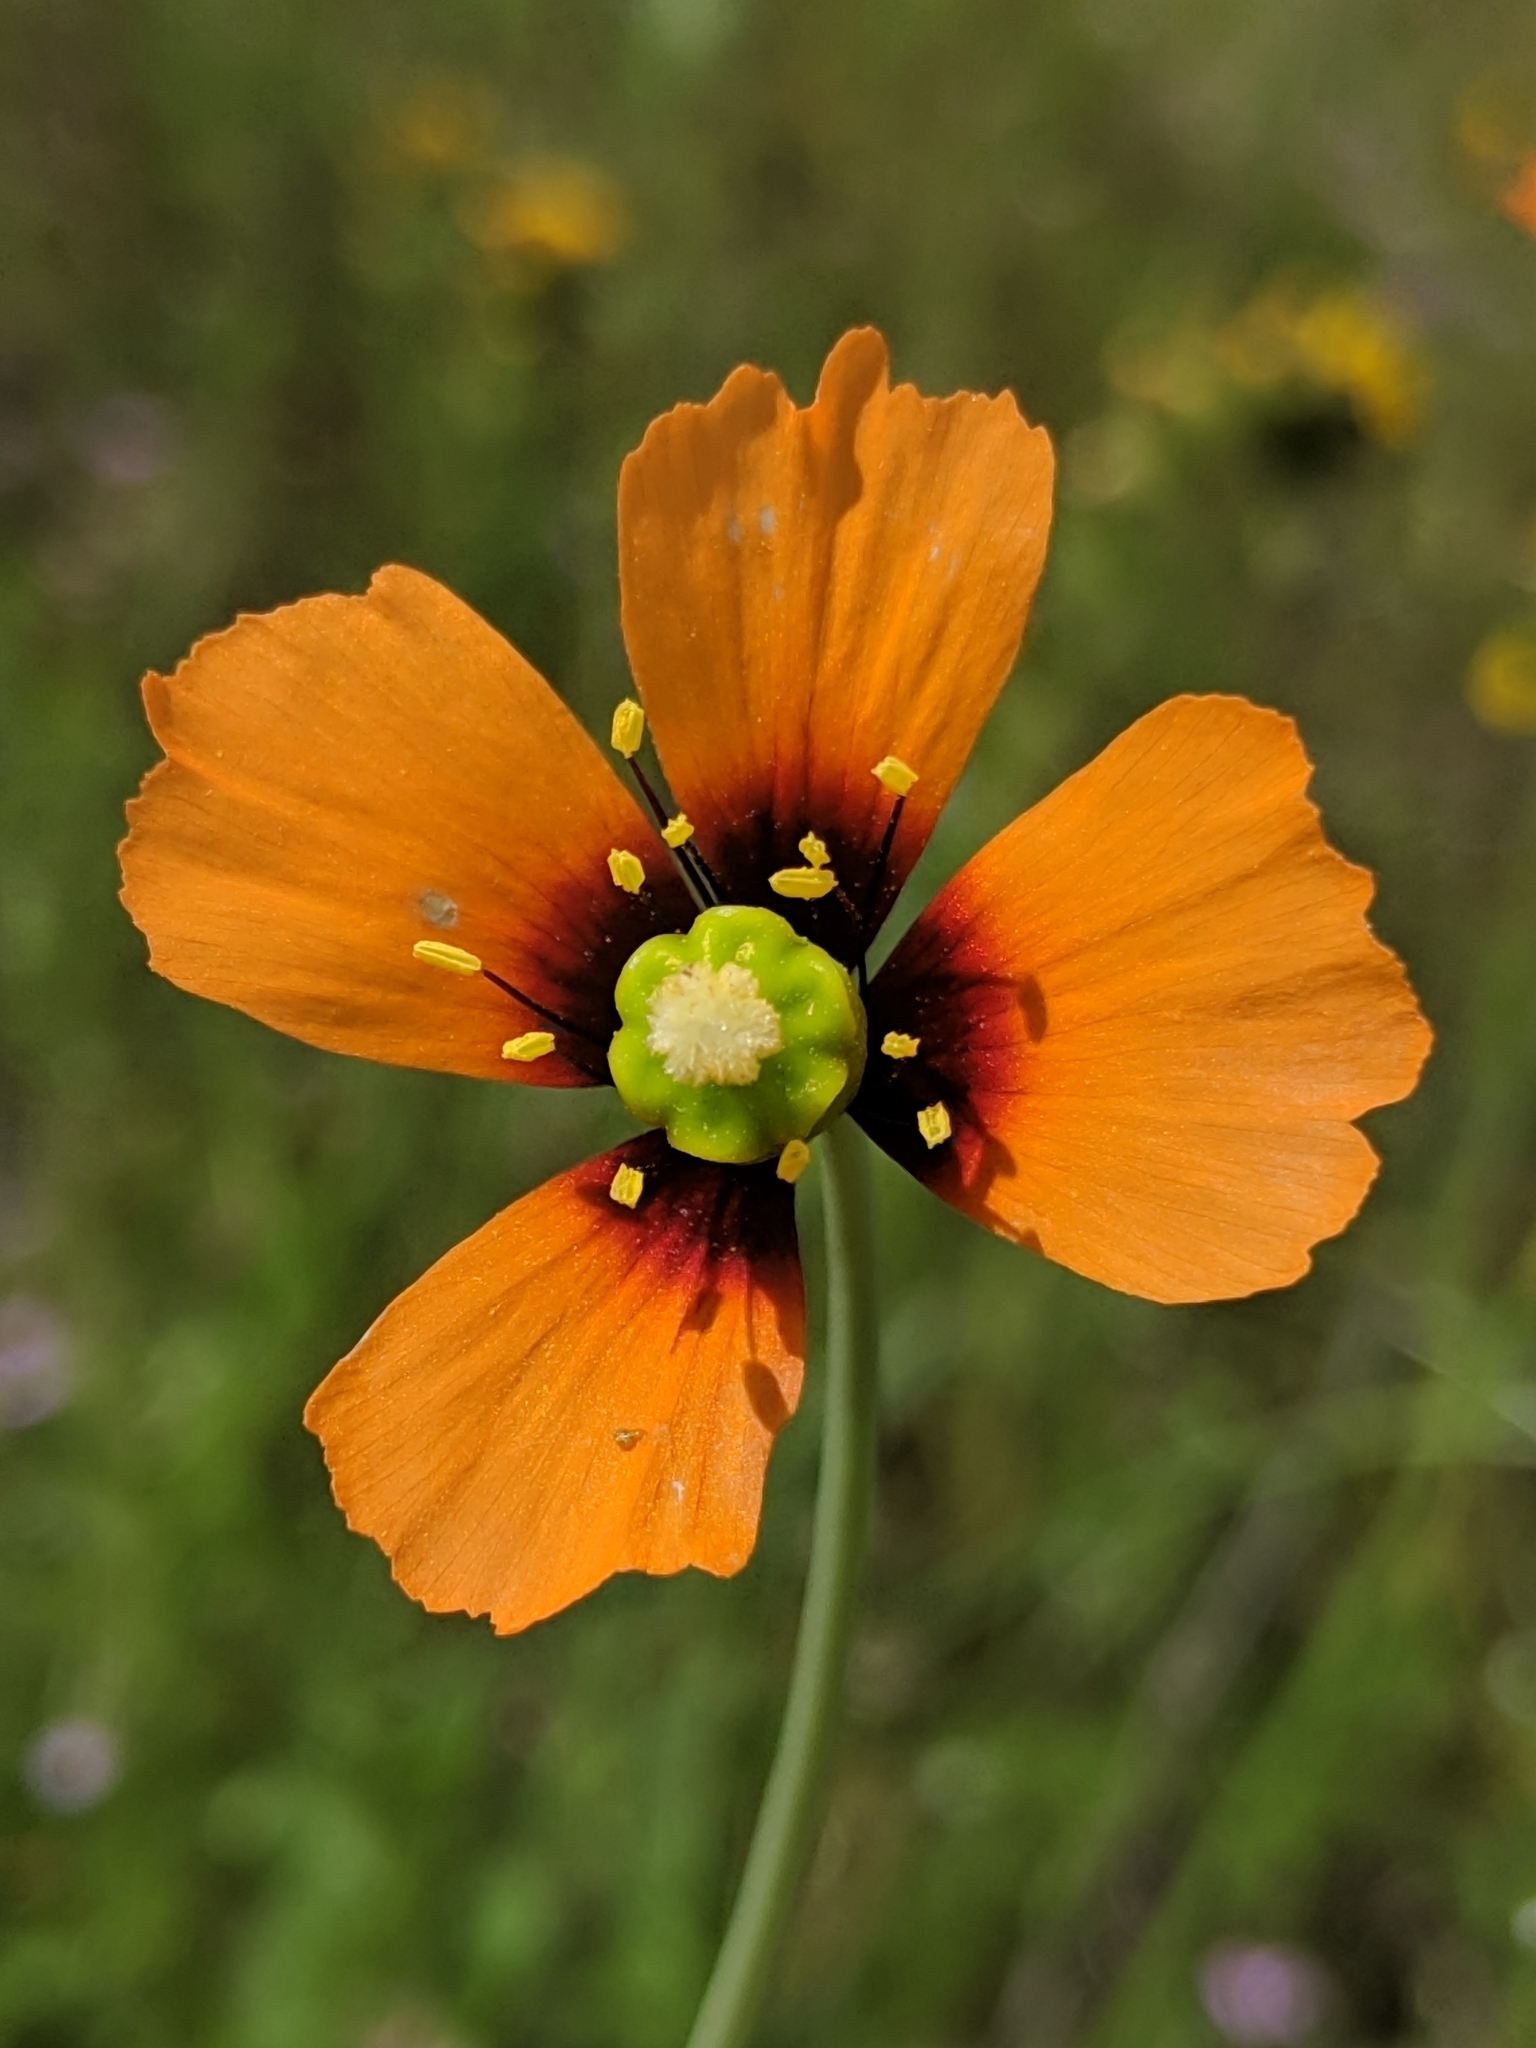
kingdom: Plantae
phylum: Tracheophyta
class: Magnoliopsida
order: Ranunculales
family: Papaveraceae
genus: Stylomecon
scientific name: Stylomecon heterophylla
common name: Flaming-poppy
